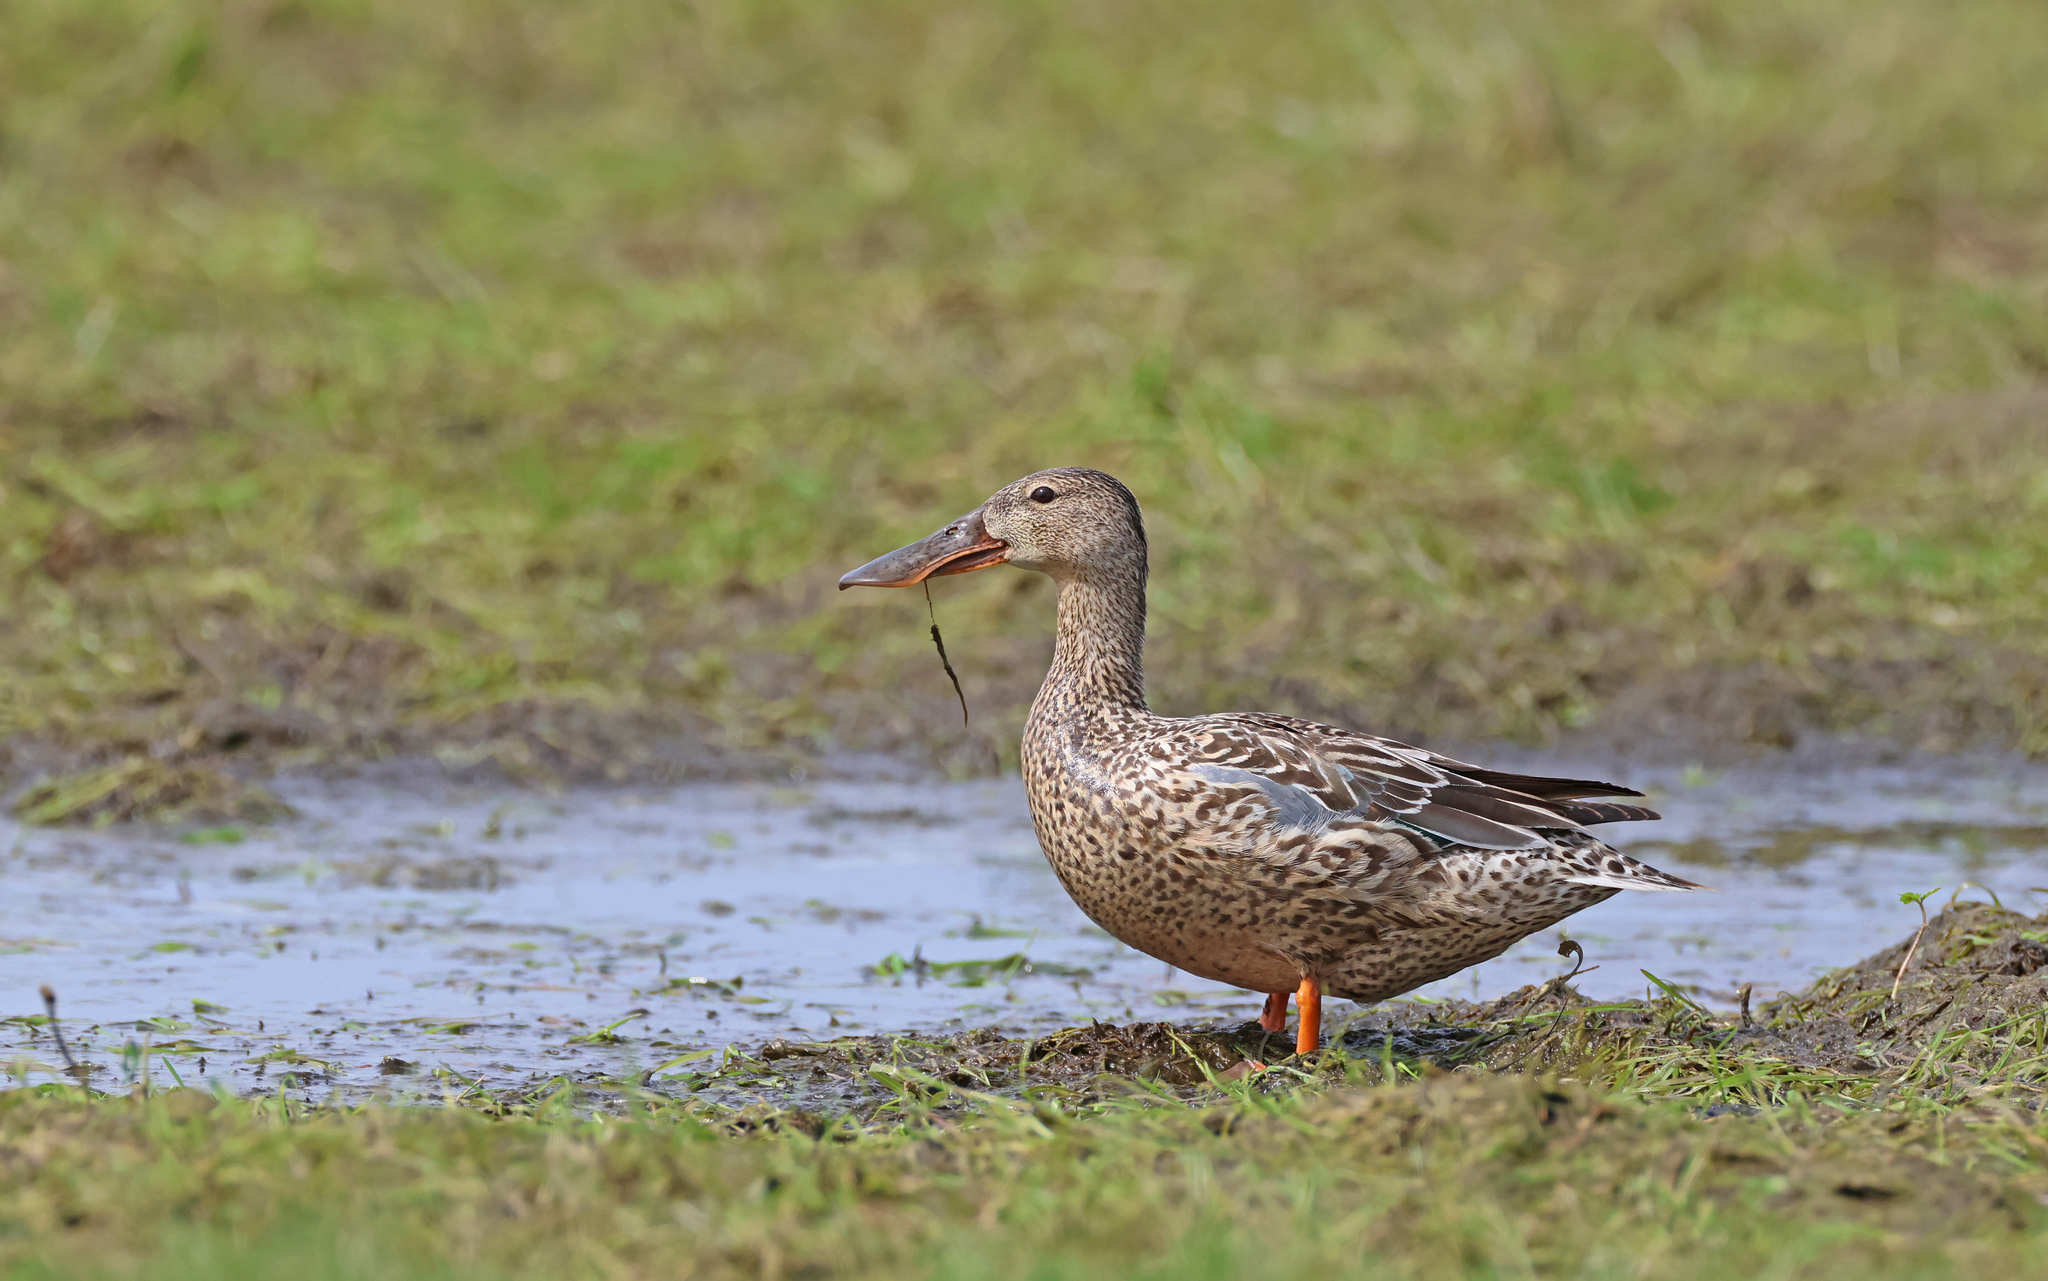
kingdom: Animalia
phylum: Chordata
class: Aves
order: Anseriformes
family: Anatidae
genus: Spatula
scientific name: Spatula clypeata
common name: Northern shoveler
